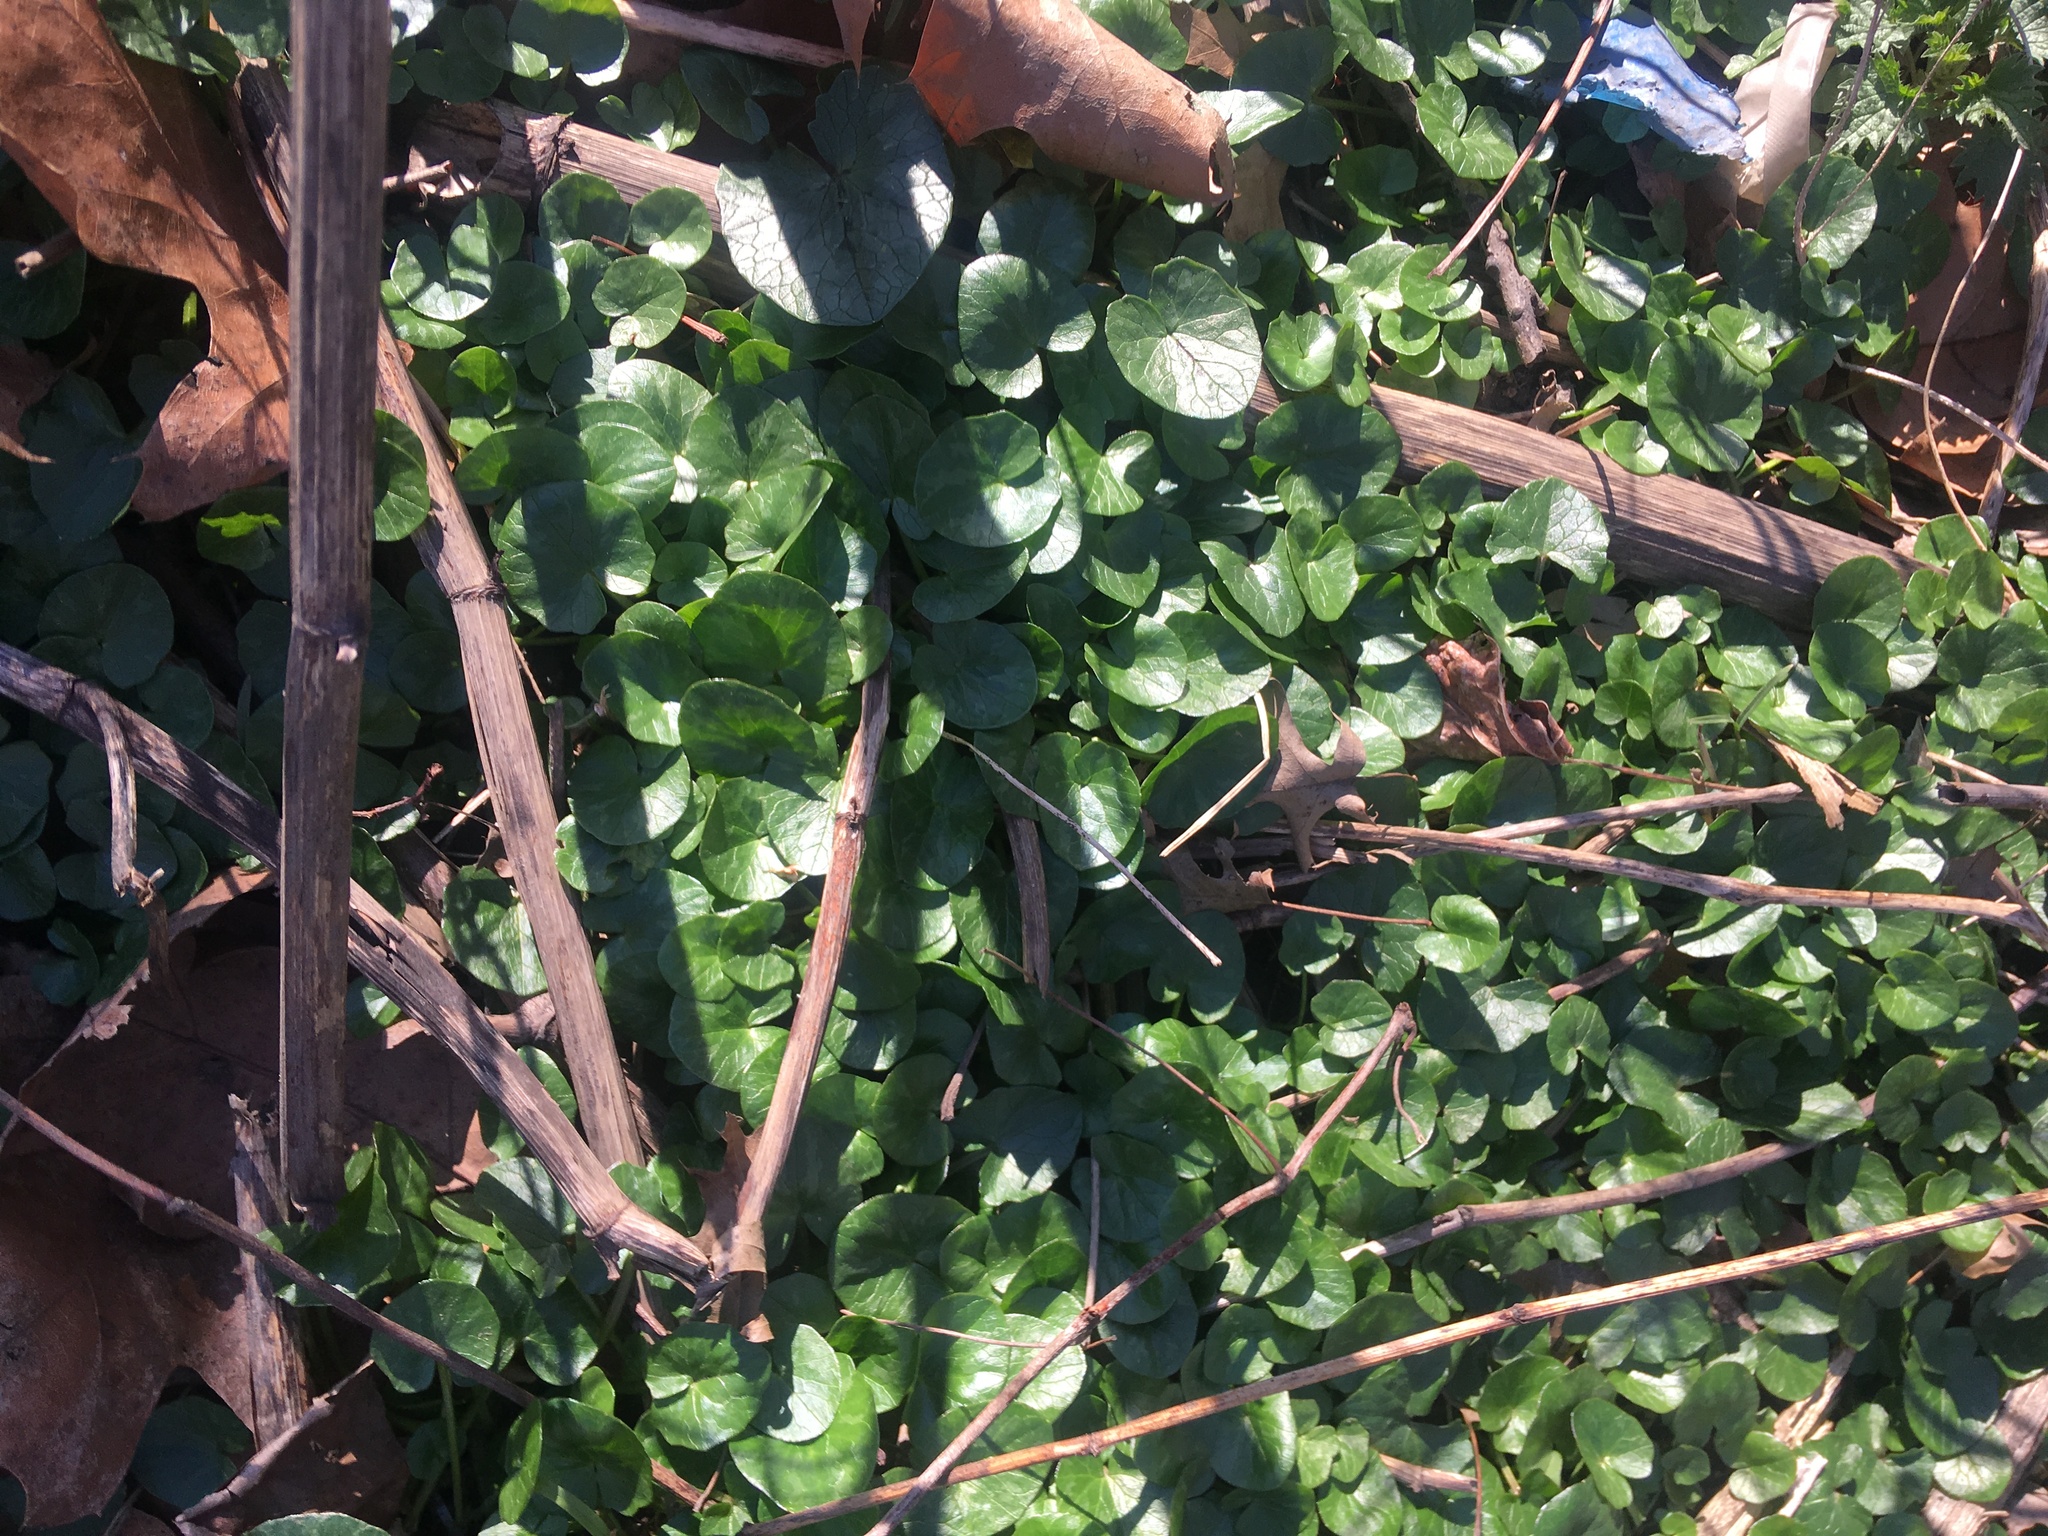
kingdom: Plantae
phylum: Tracheophyta
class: Magnoliopsida
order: Ranunculales
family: Ranunculaceae
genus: Ficaria
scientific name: Ficaria verna
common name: Lesser celandine
